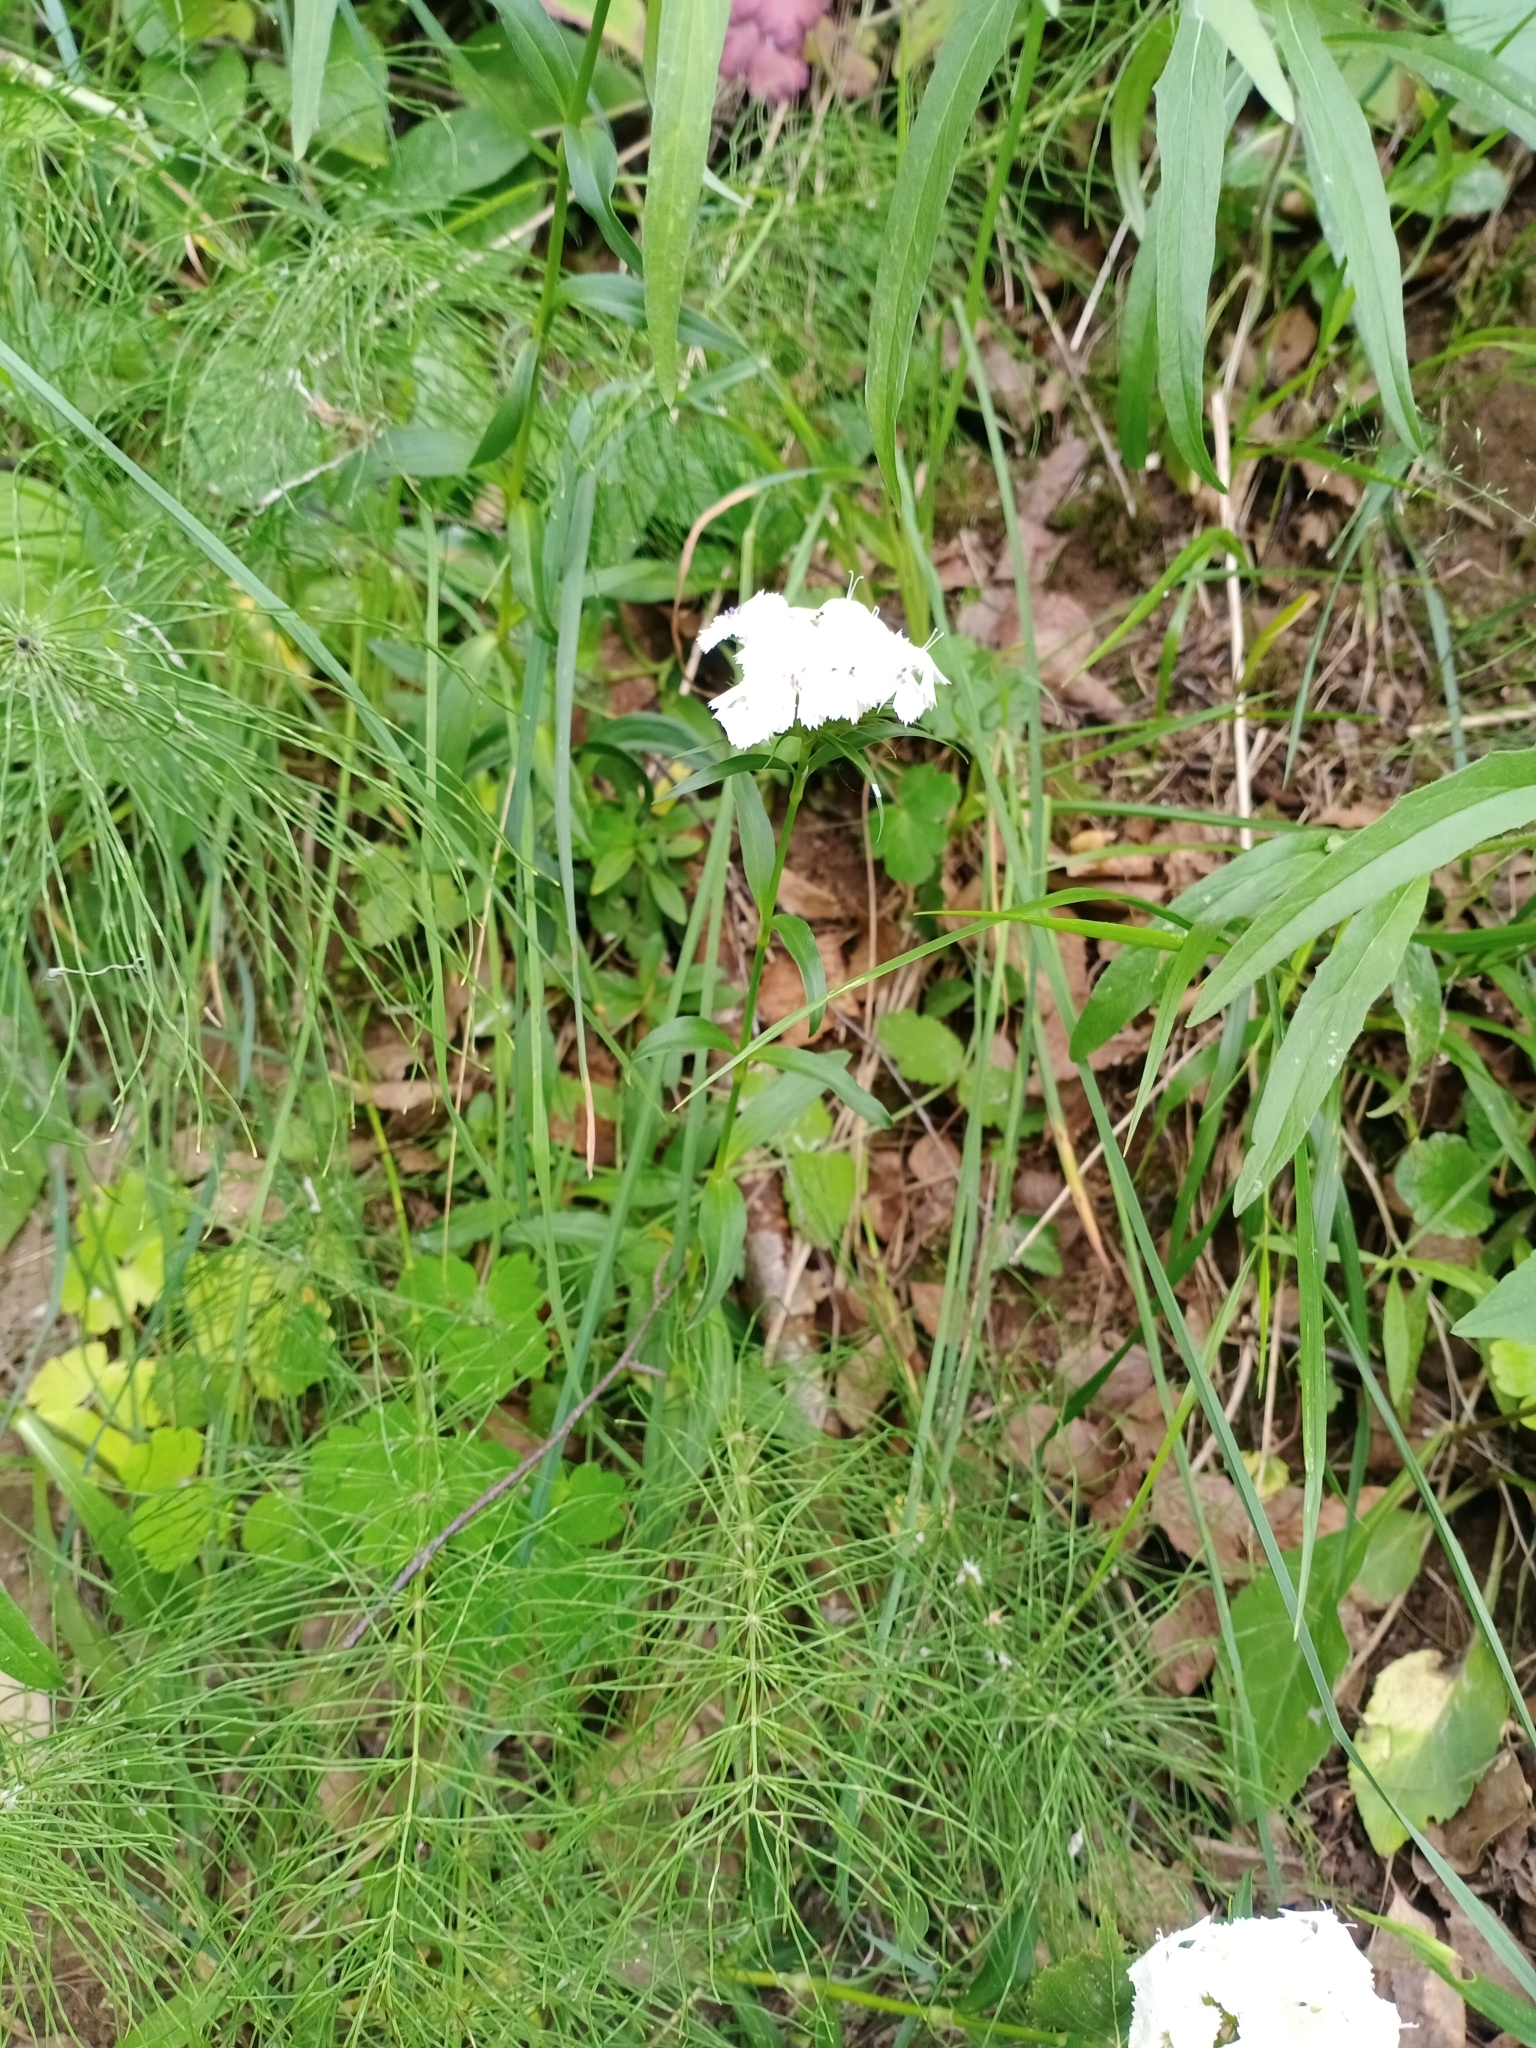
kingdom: Plantae
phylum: Tracheophyta
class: Magnoliopsida
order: Caryophyllales
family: Caryophyllaceae
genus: Dianthus
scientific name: Dianthus barbatus
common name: Sweet-william
